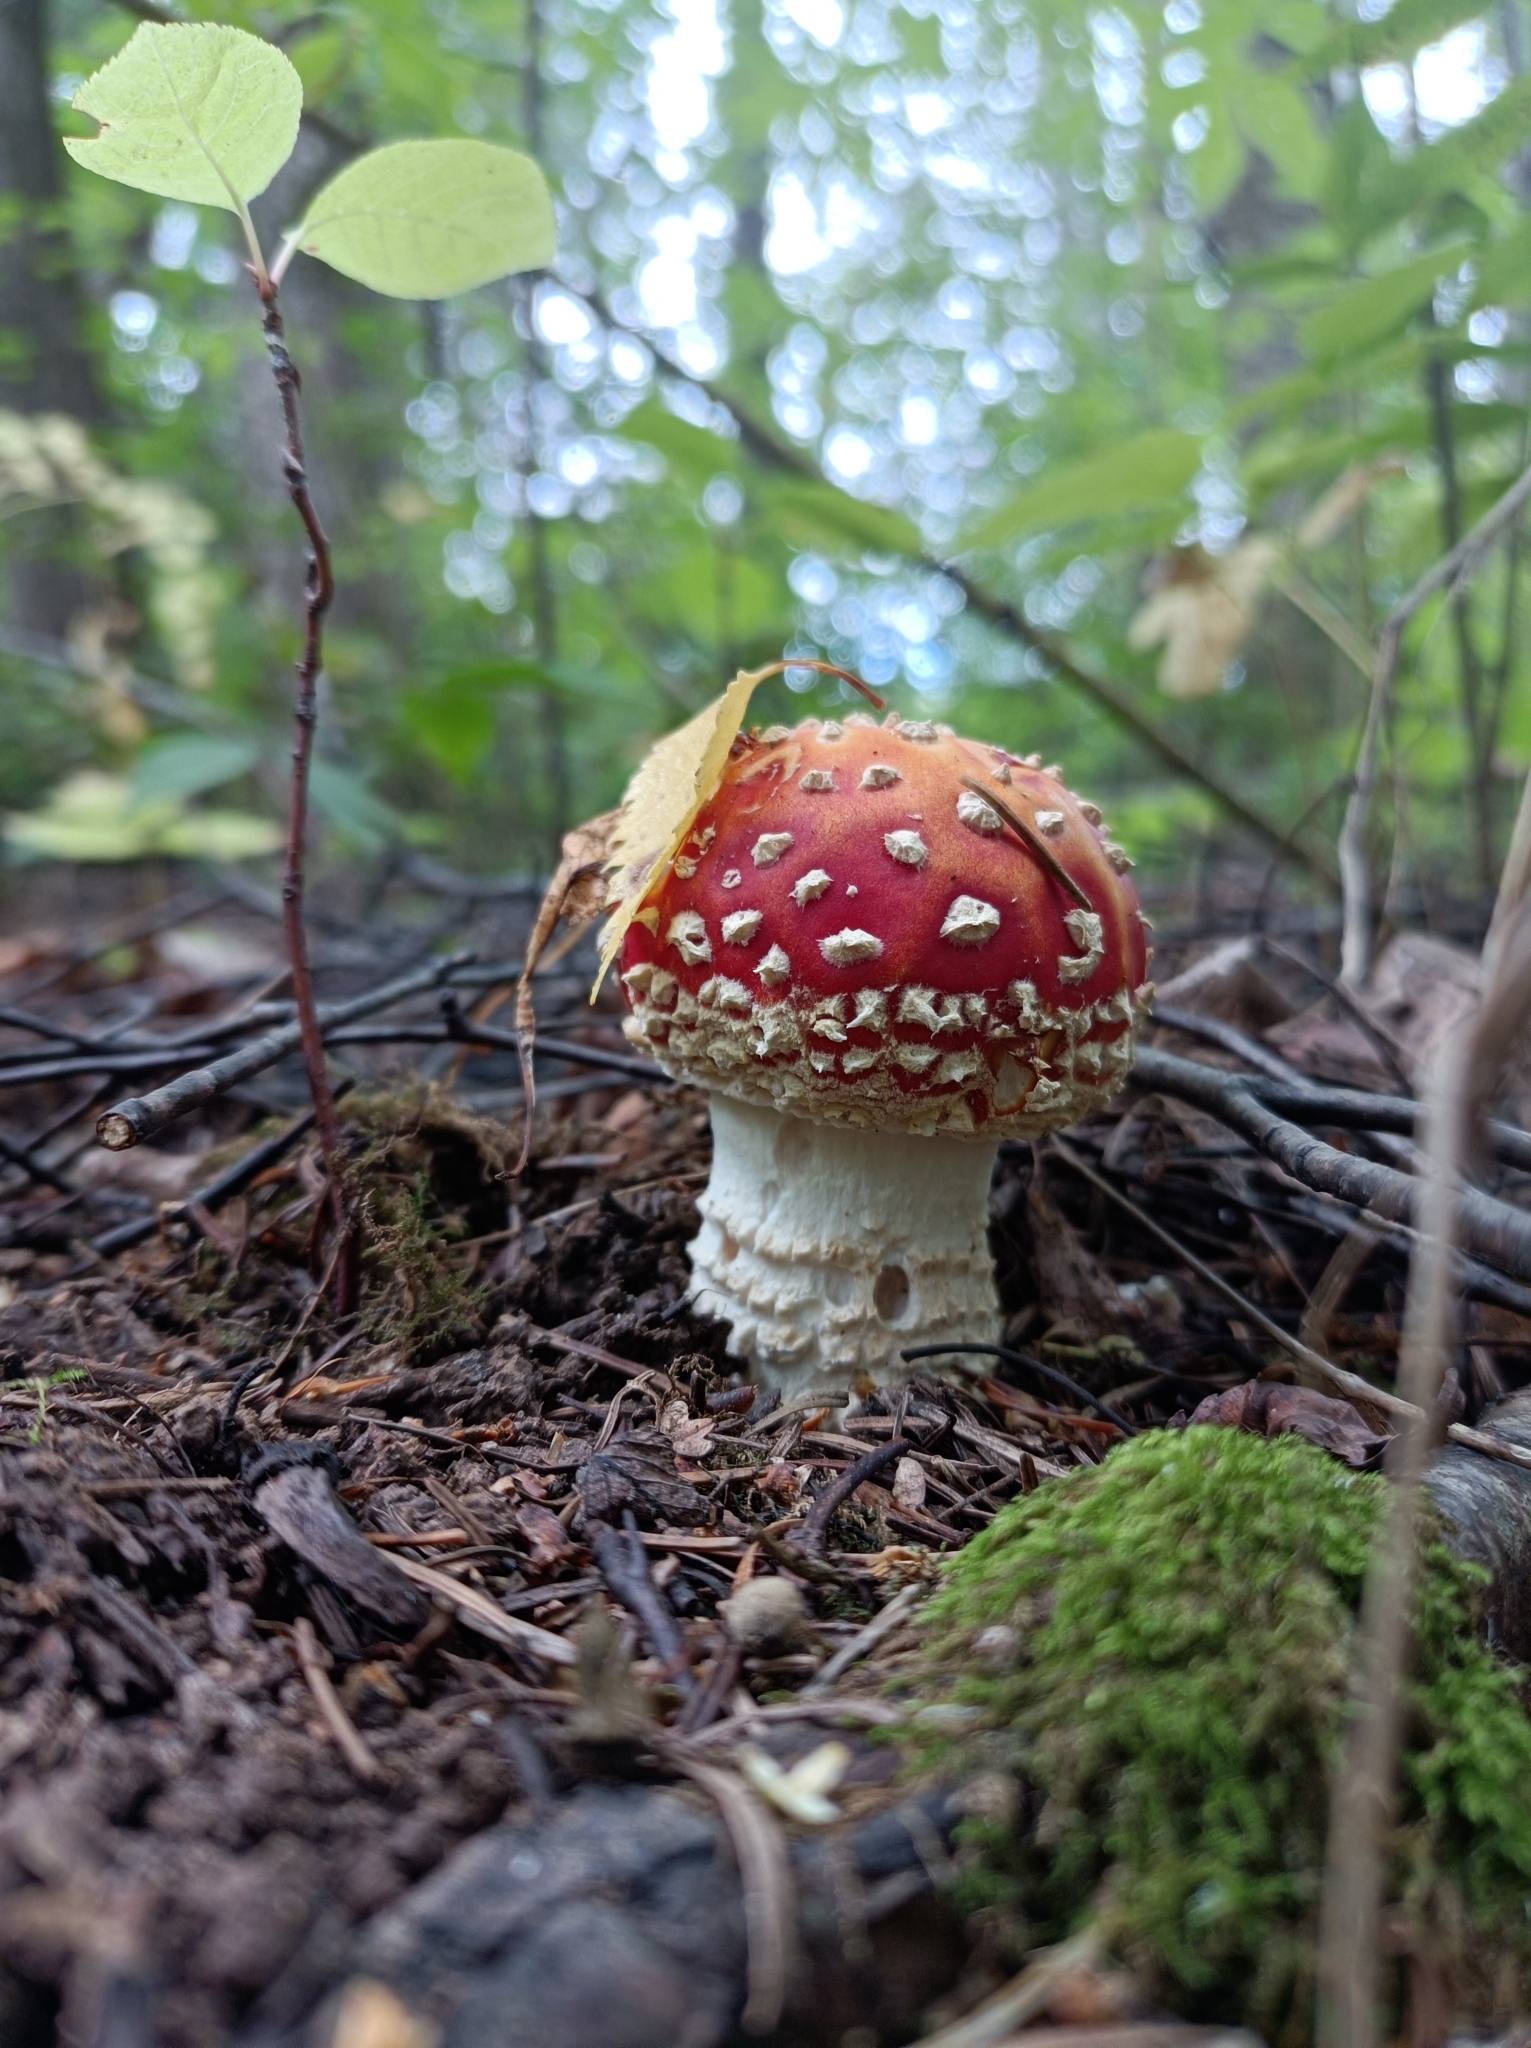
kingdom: Fungi
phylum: Basidiomycota
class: Agaricomycetes
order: Agaricales
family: Amanitaceae
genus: Amanita
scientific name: Amanita muscaria
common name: Fly agaric
